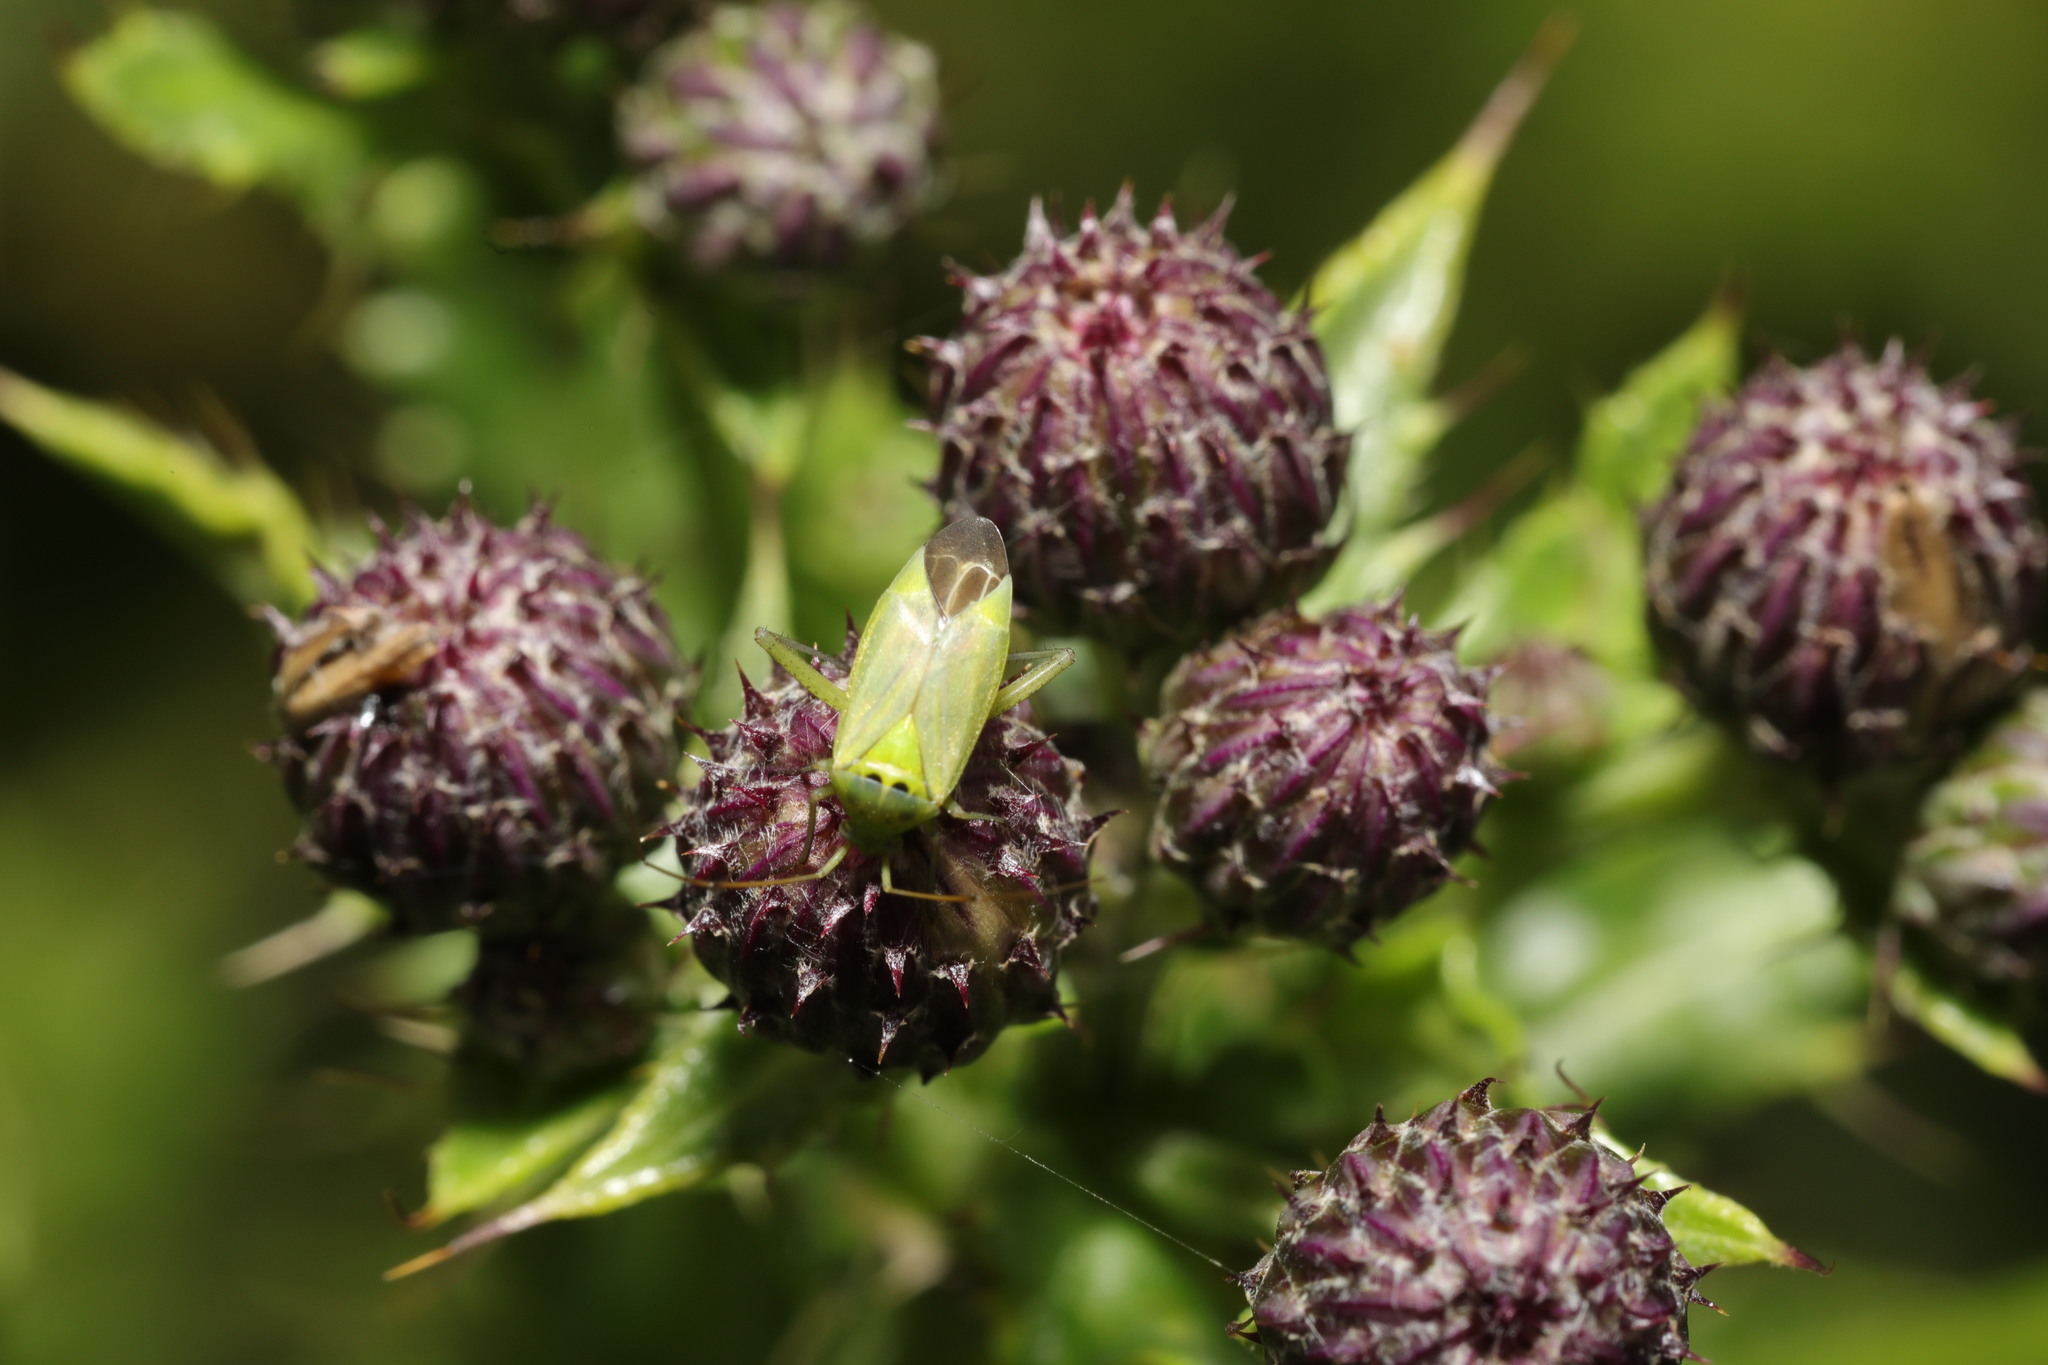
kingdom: Animalia
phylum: Arthropoda
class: Insecta
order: Hemiptera
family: Miridae
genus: Closterotomus
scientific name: Closterotomus norvegicus
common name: Plant bug
